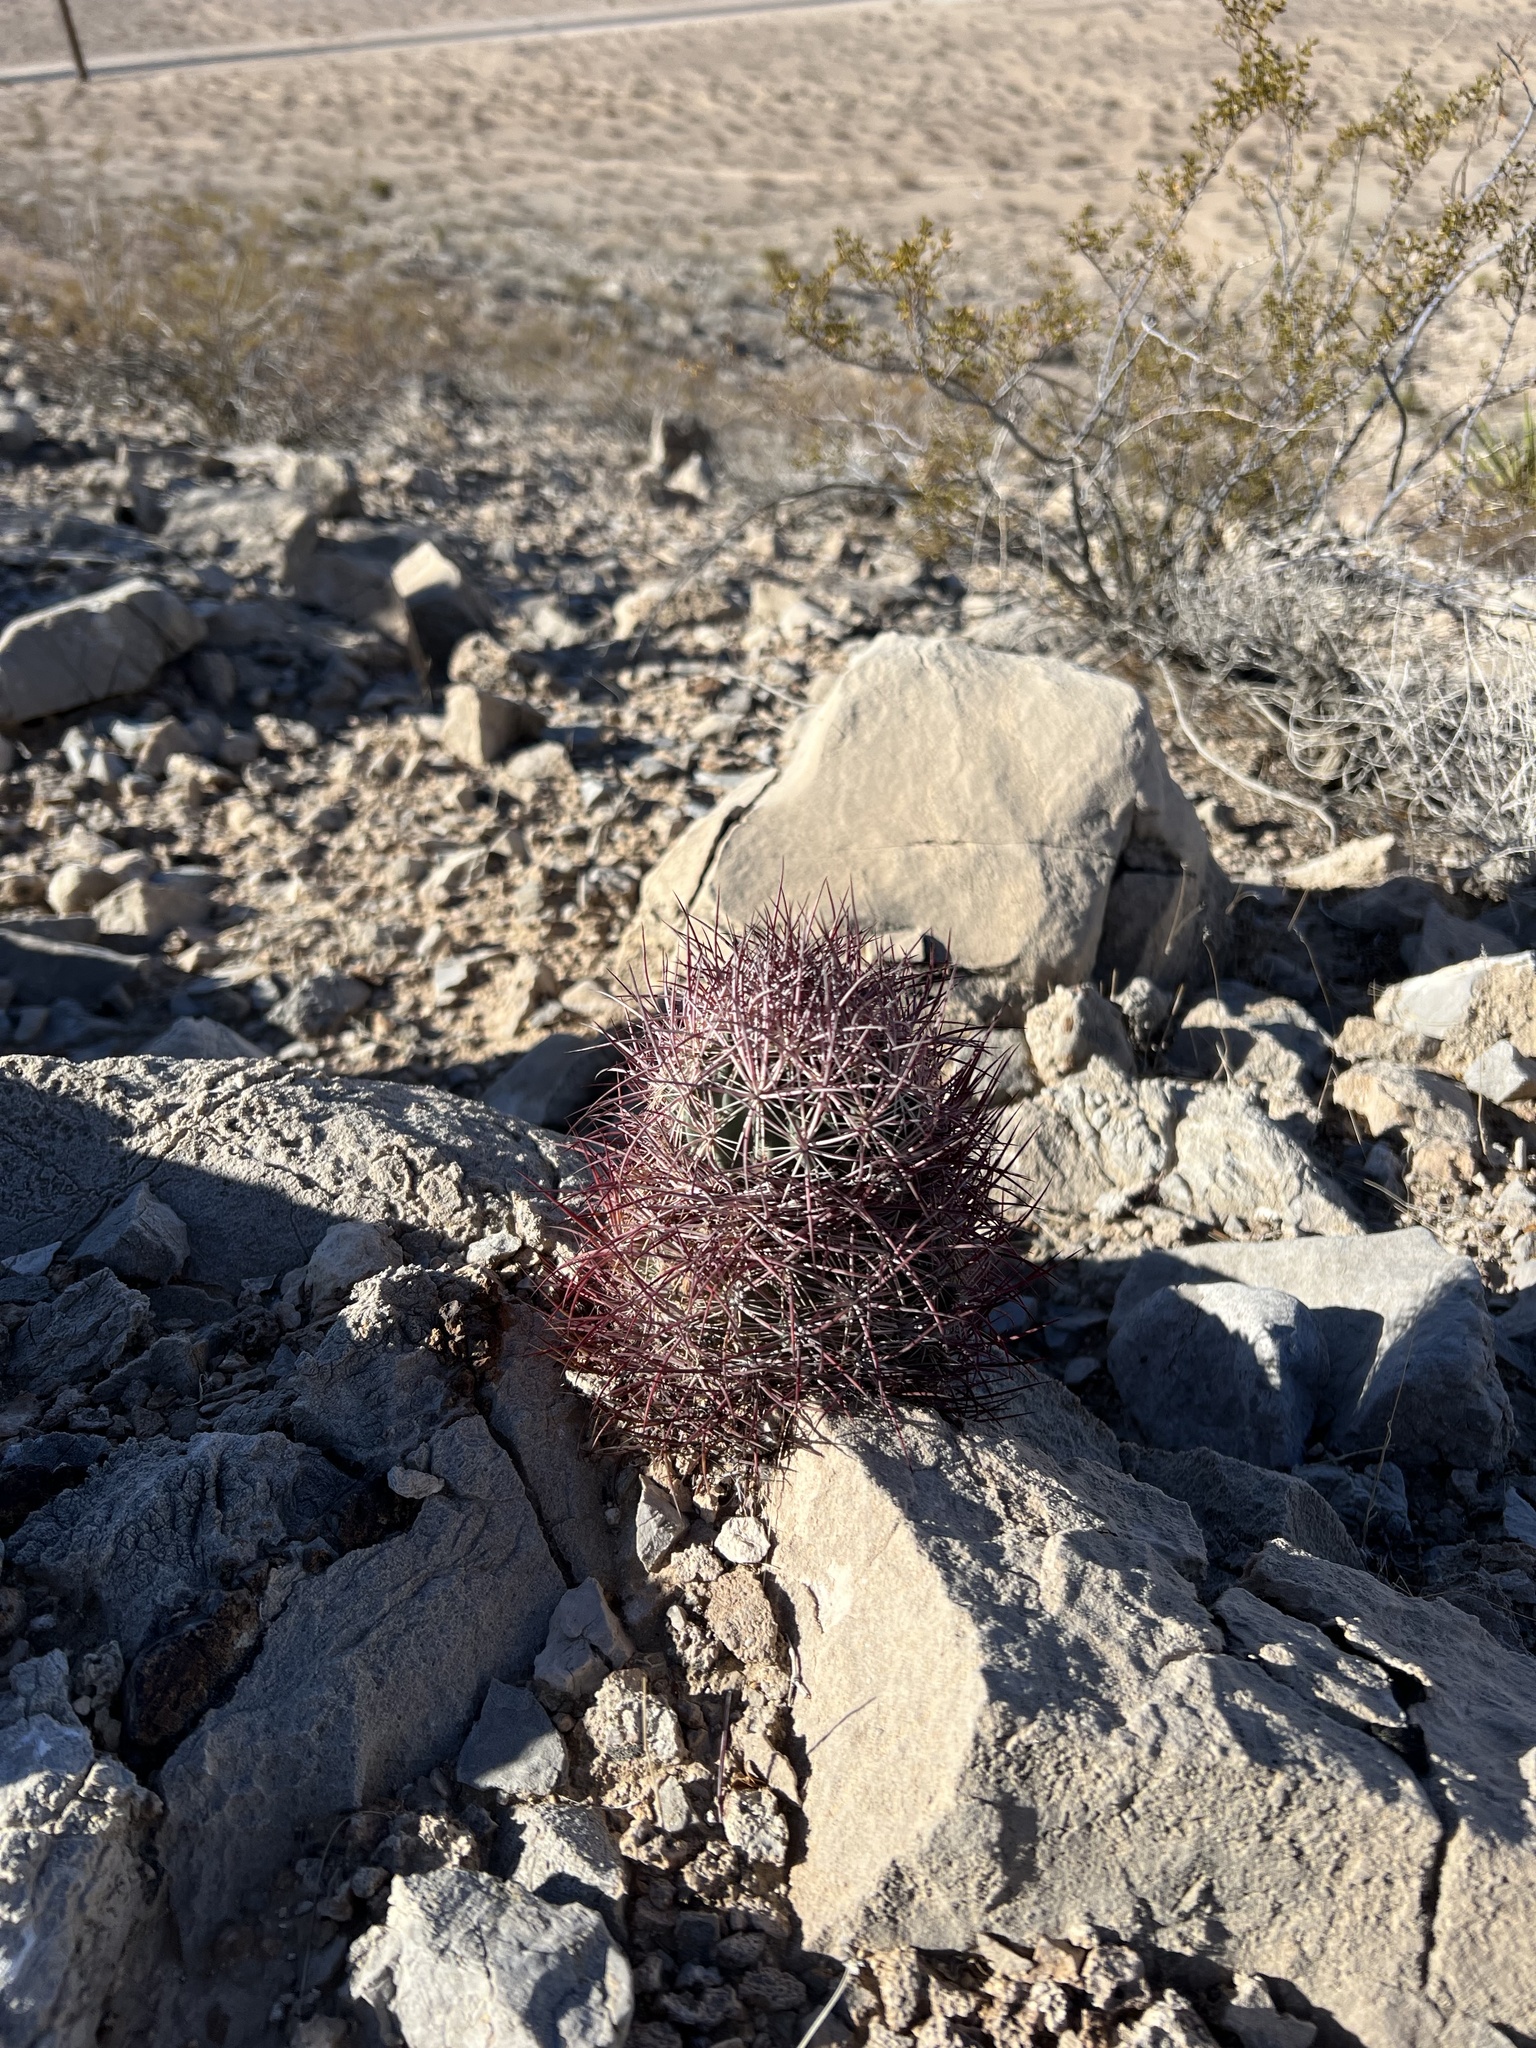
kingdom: Plantae
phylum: Tracheophyta
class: Magnoliopsida
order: Caryophyllales
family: Cactaceae
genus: Sclerocactus
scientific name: Sclerocactus johnsonii
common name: Eight-spine fishhook cactus
